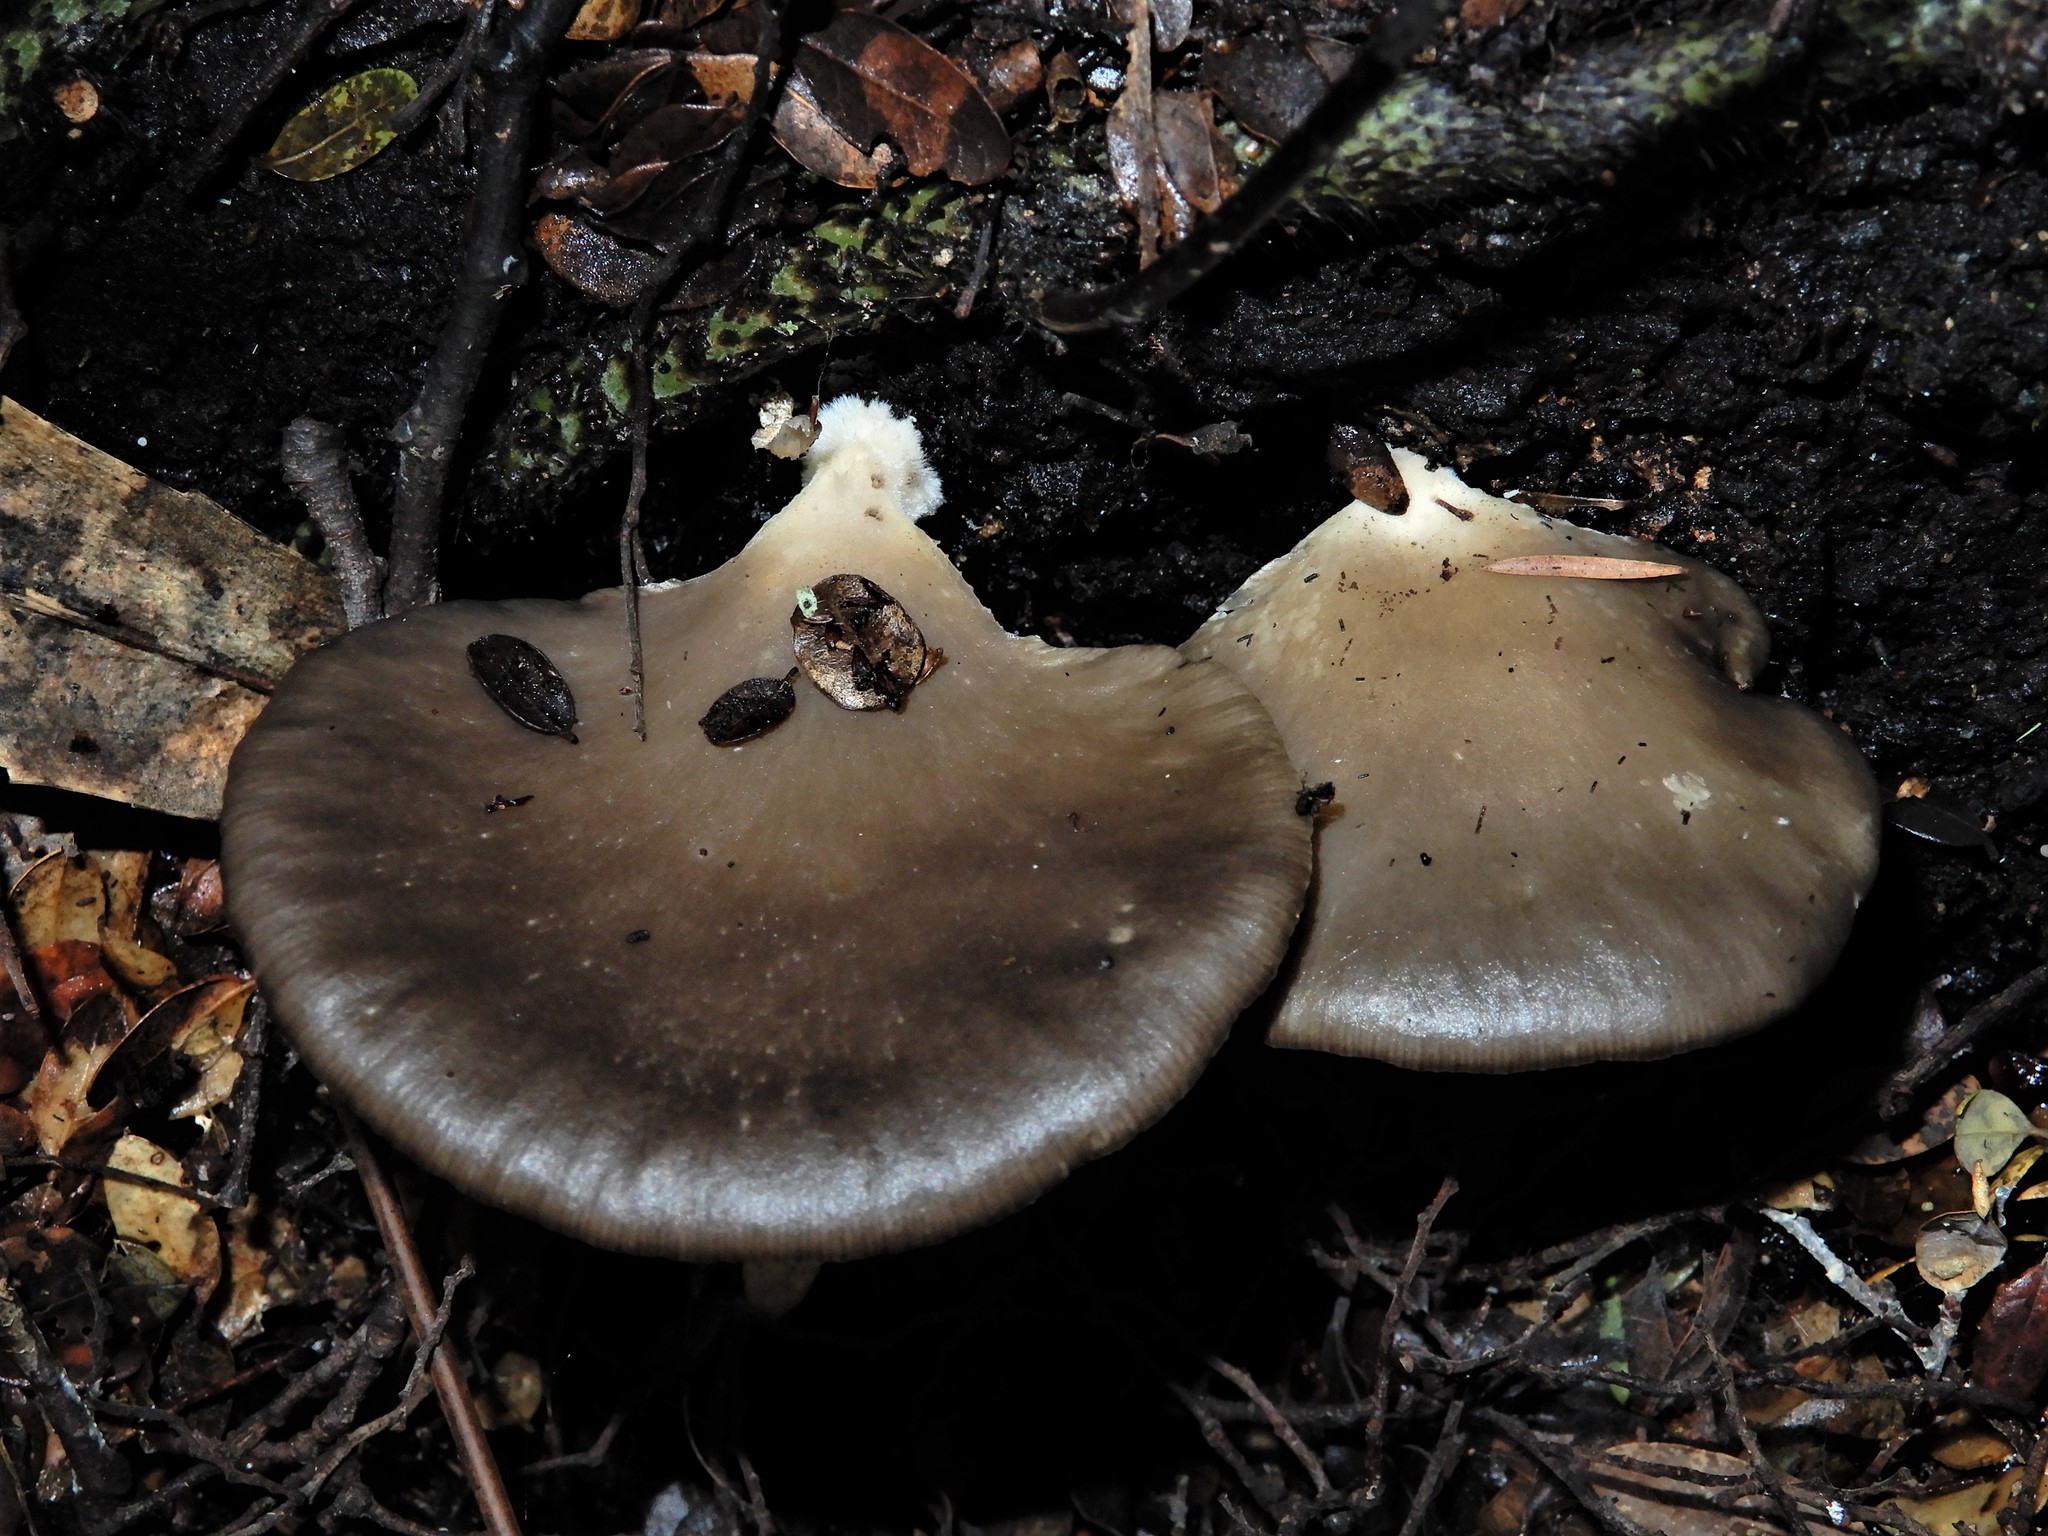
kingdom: Fungi
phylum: Basidiomycota
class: Agaricomycetes
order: Agaricales
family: Pleurotaceae
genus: Pleurotus
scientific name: Pleurotus purpureo-olivaceus
